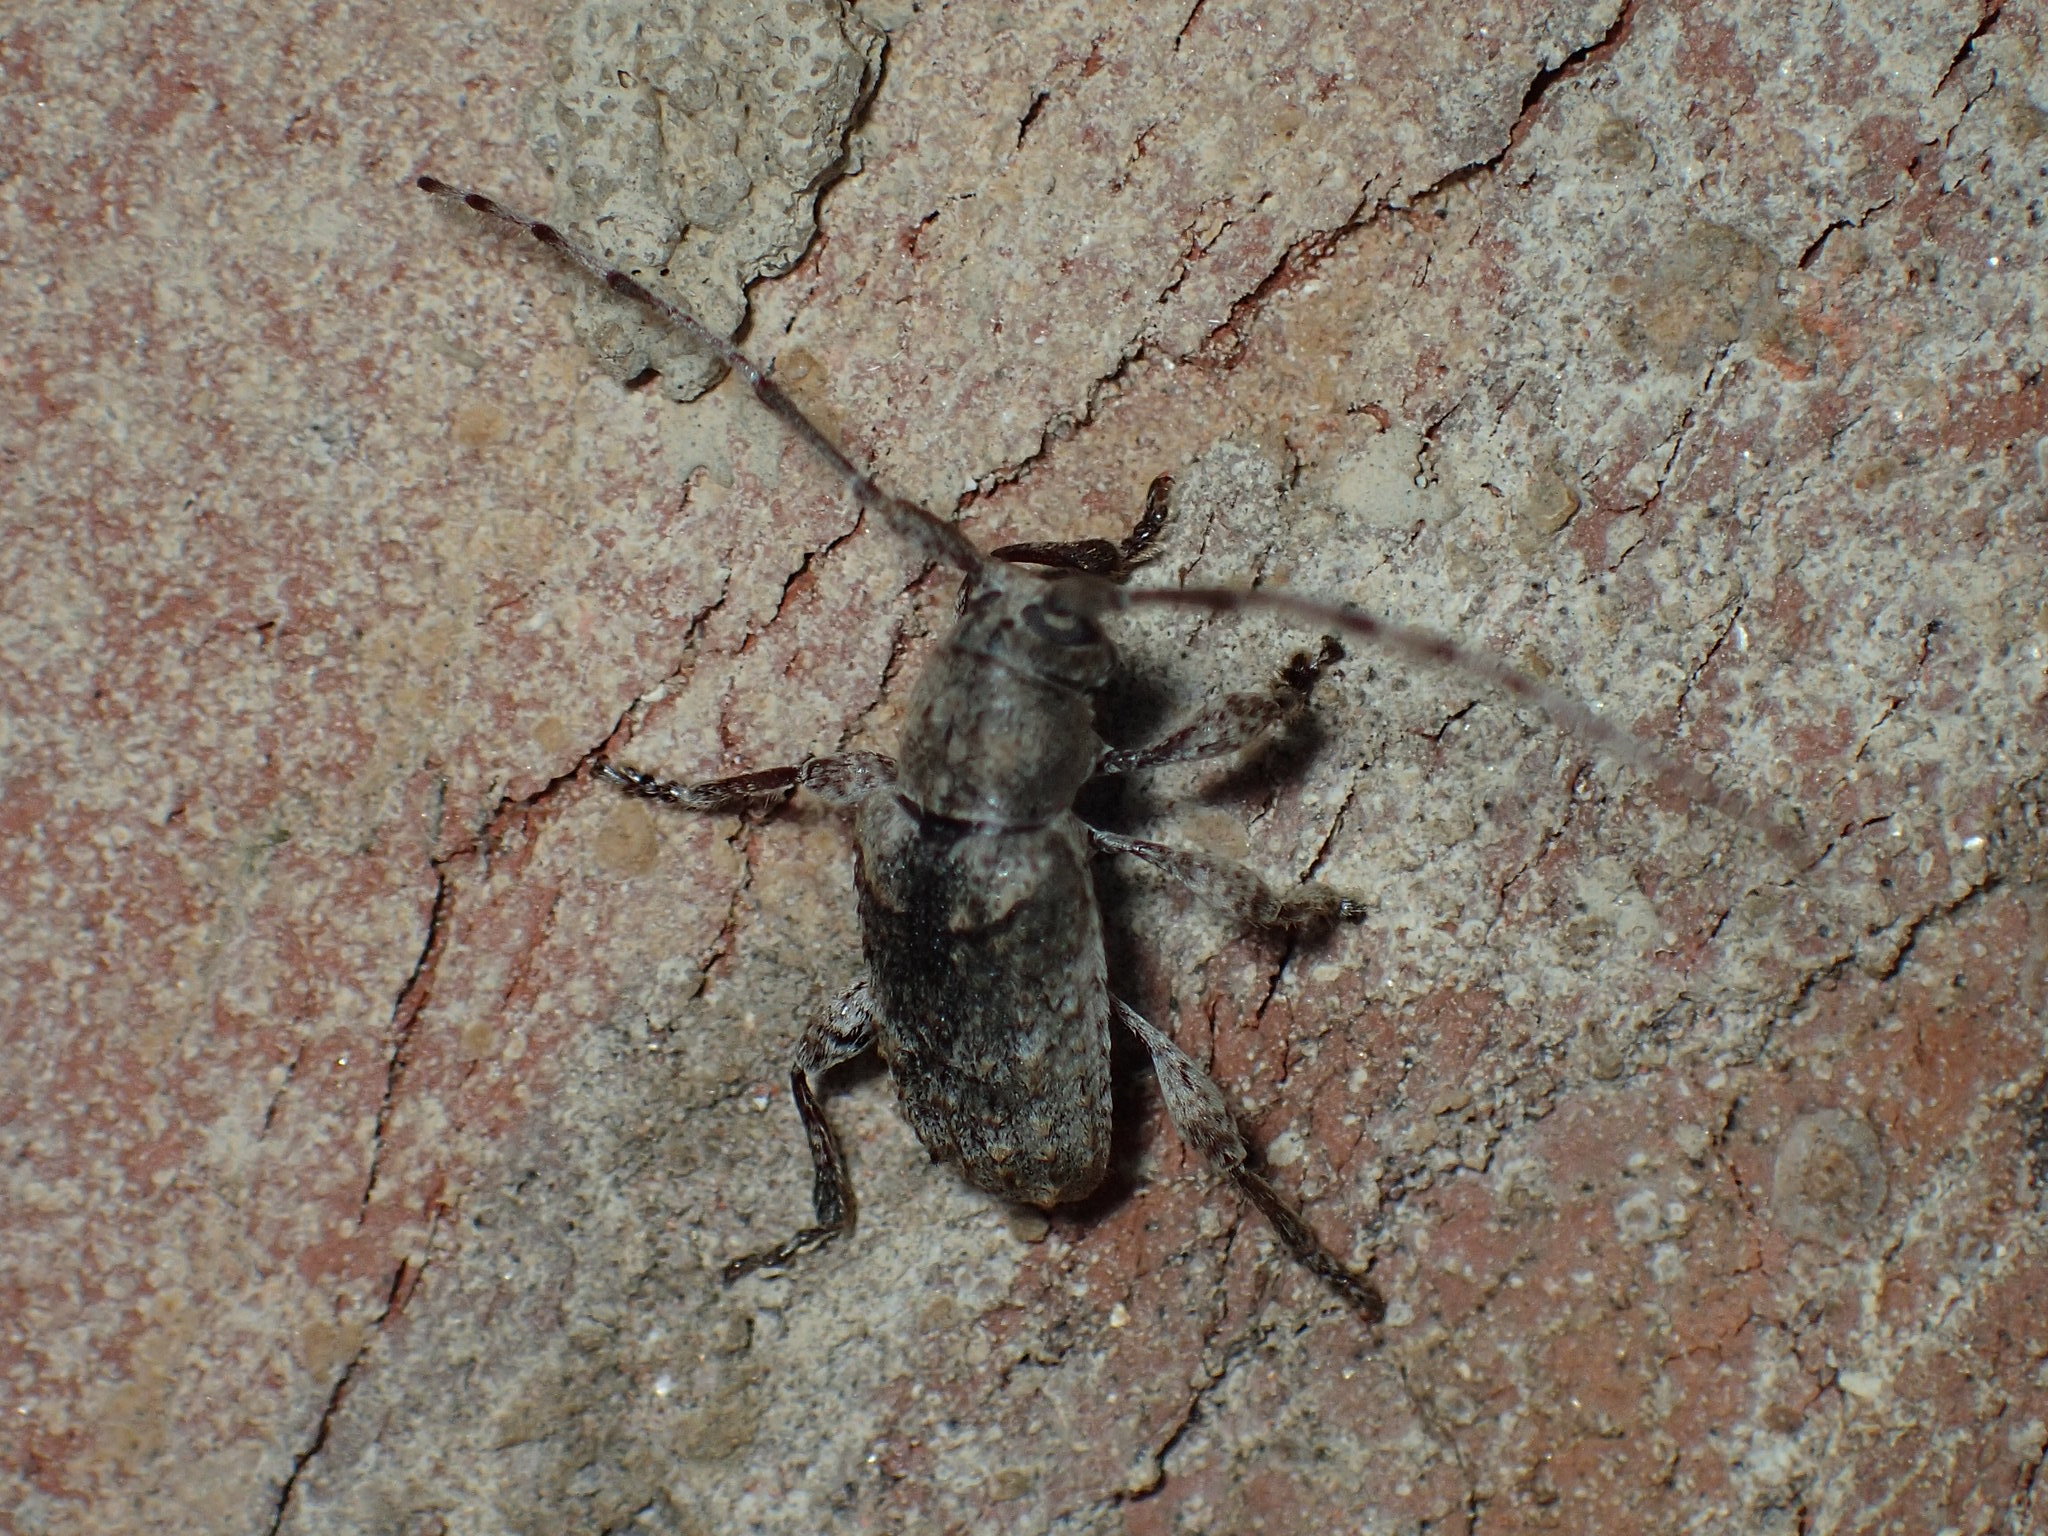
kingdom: Animalia
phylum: Arthropoda
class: Insecta
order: Coleoptera
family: Cerambycidae
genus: Ecyrus
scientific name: Ecyrus dasycerus
